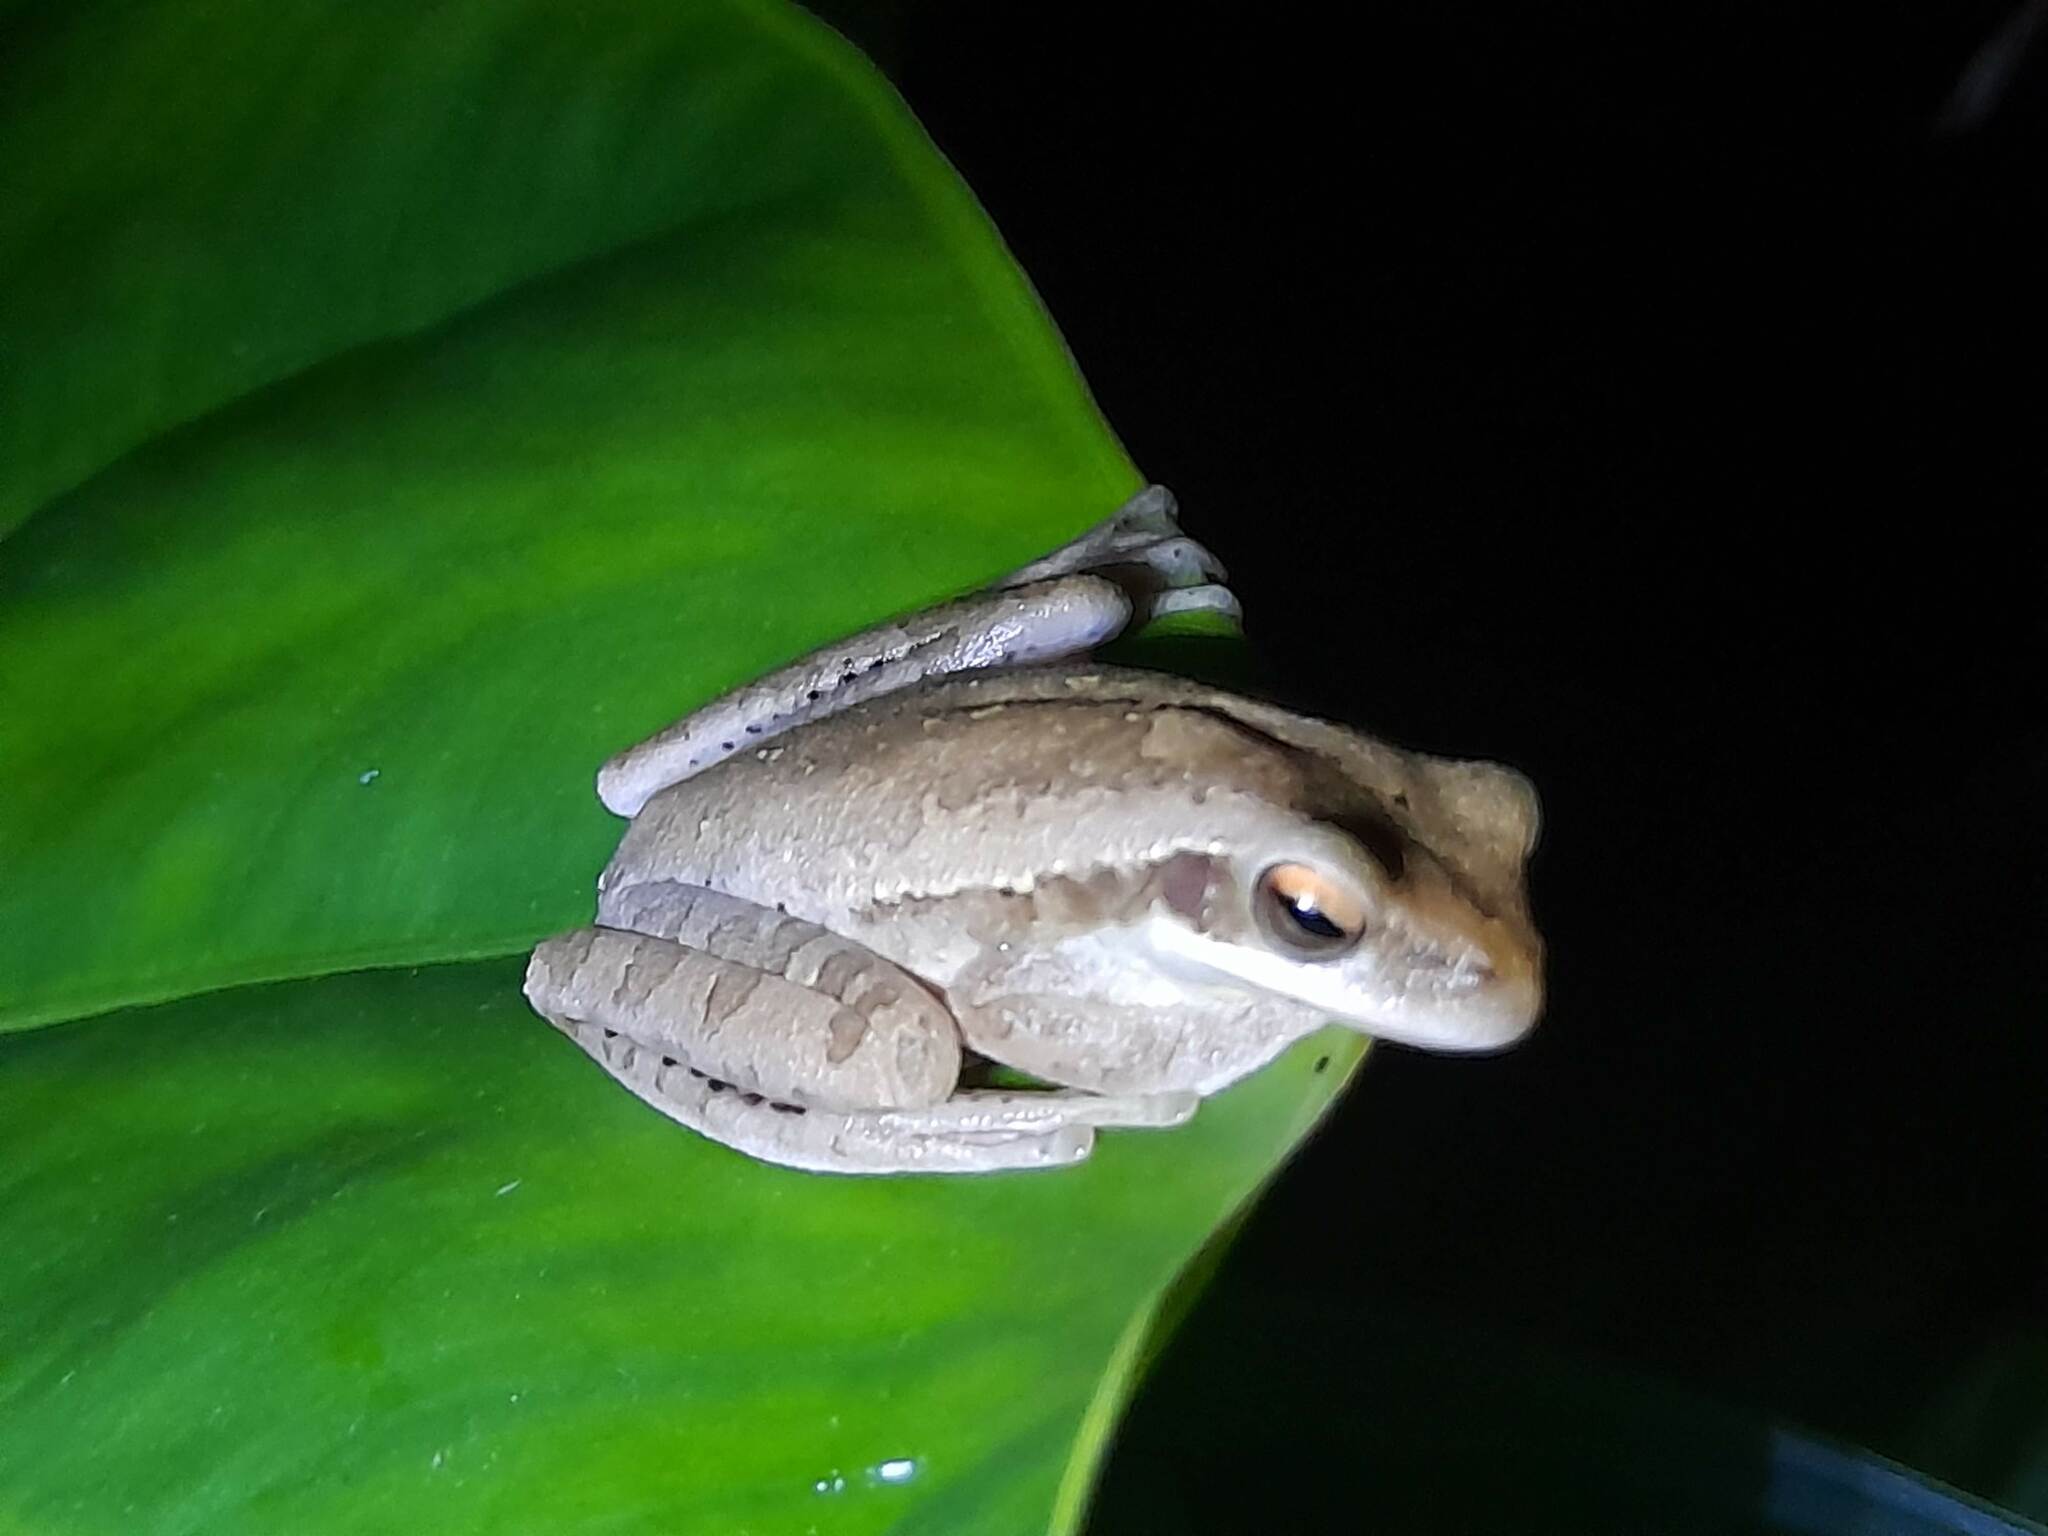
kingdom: Animalia
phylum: Chordata
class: Amphibia
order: Anura
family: Hylidae
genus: Boana
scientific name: Boana pulchella
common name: Montevideo treefrog
